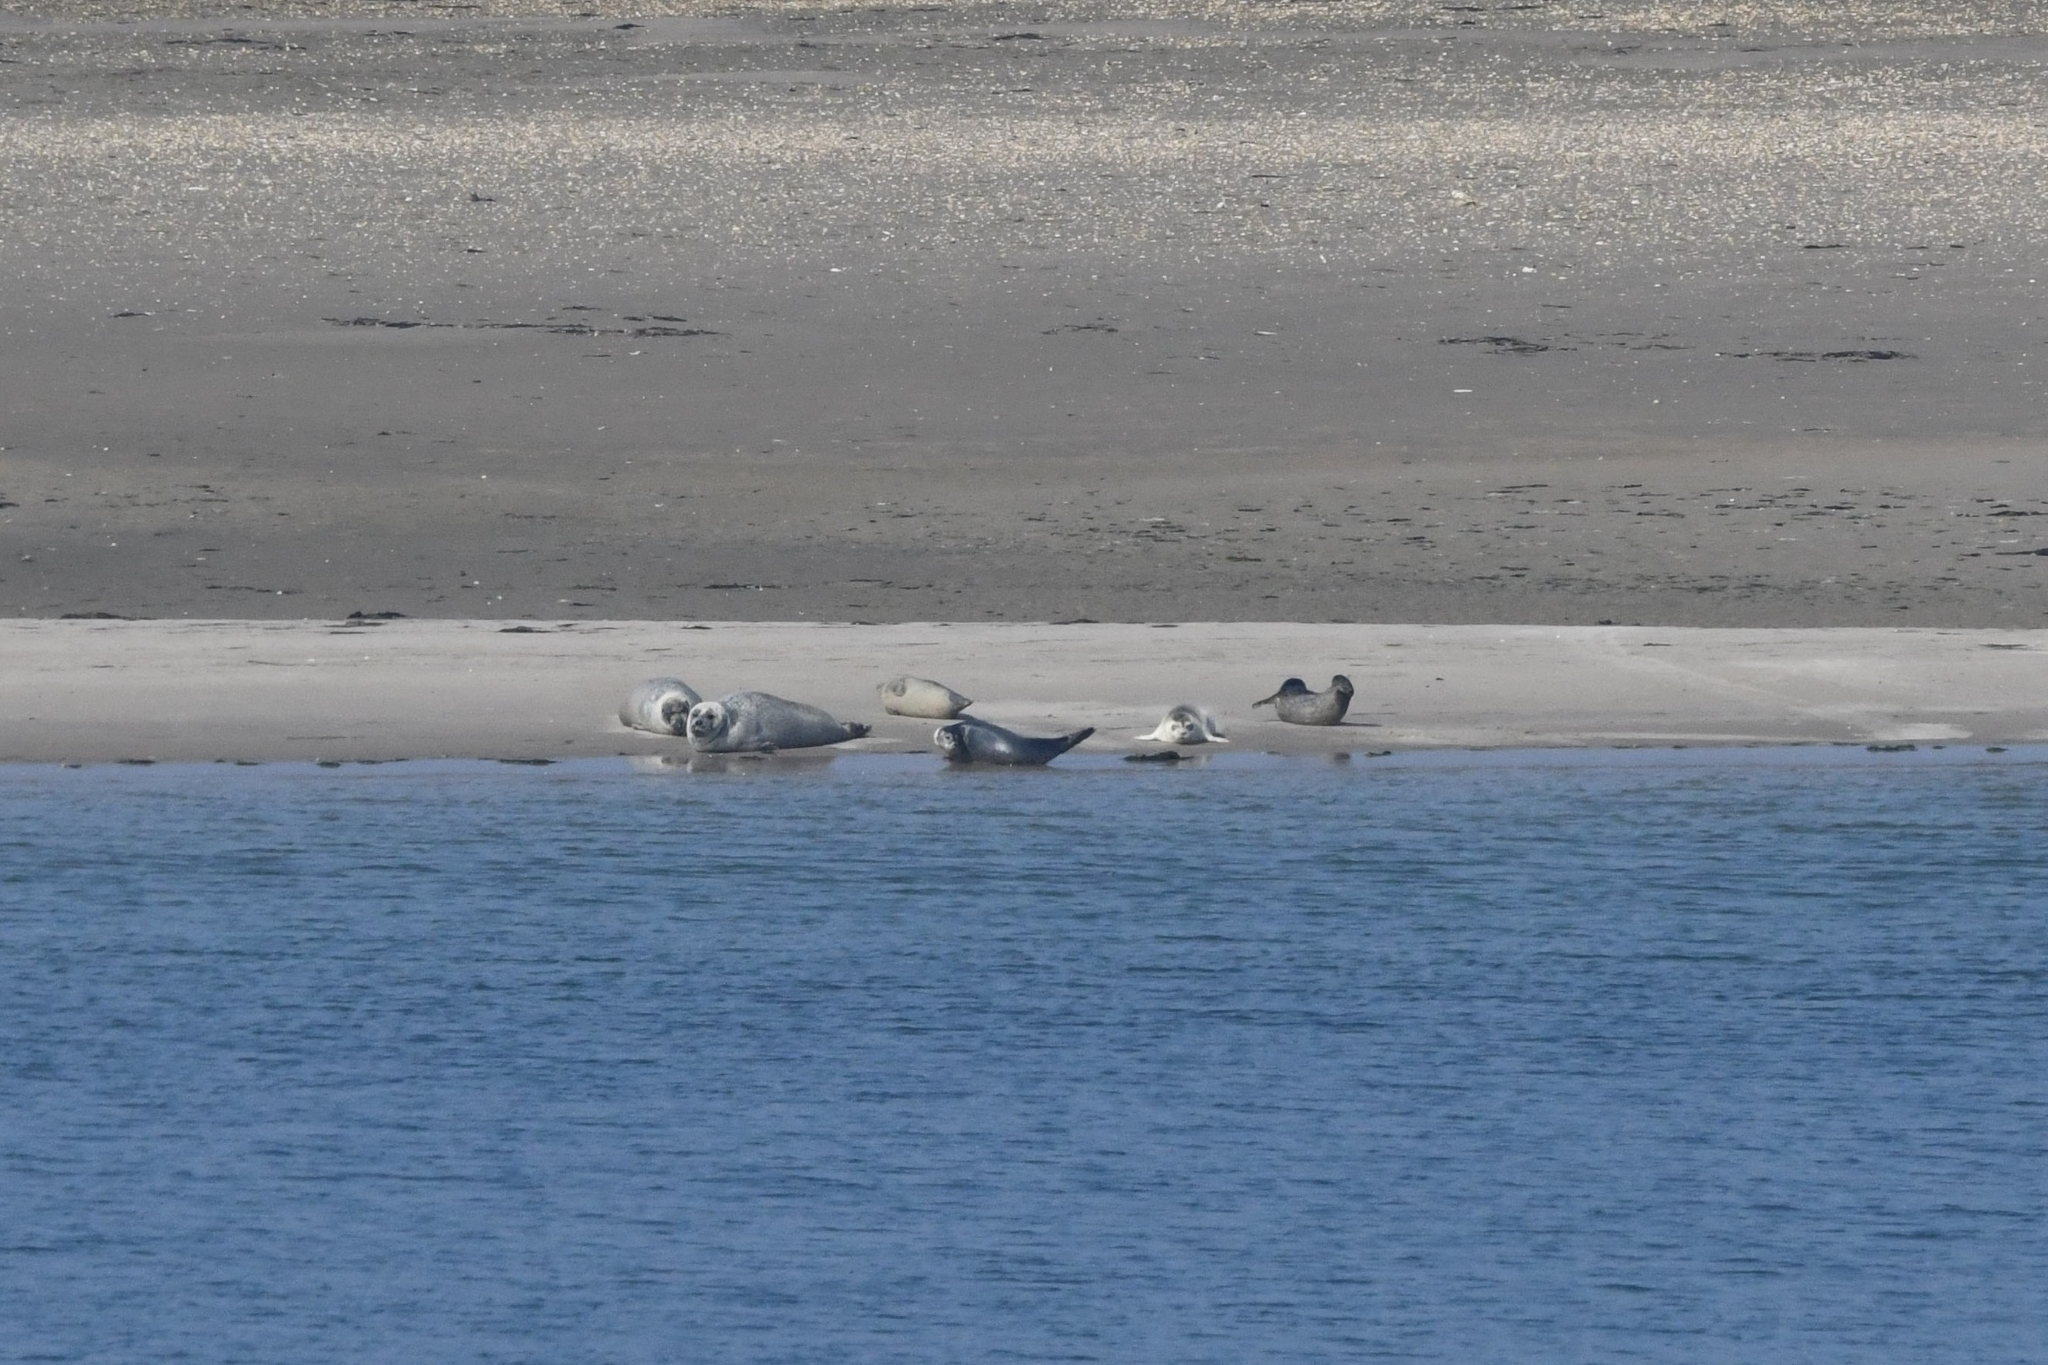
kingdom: Animalia
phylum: Chordata
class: Mammalia
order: Carnivora
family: Phocidae
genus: Phoca
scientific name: Phoca vitulina
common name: Harbor seal
